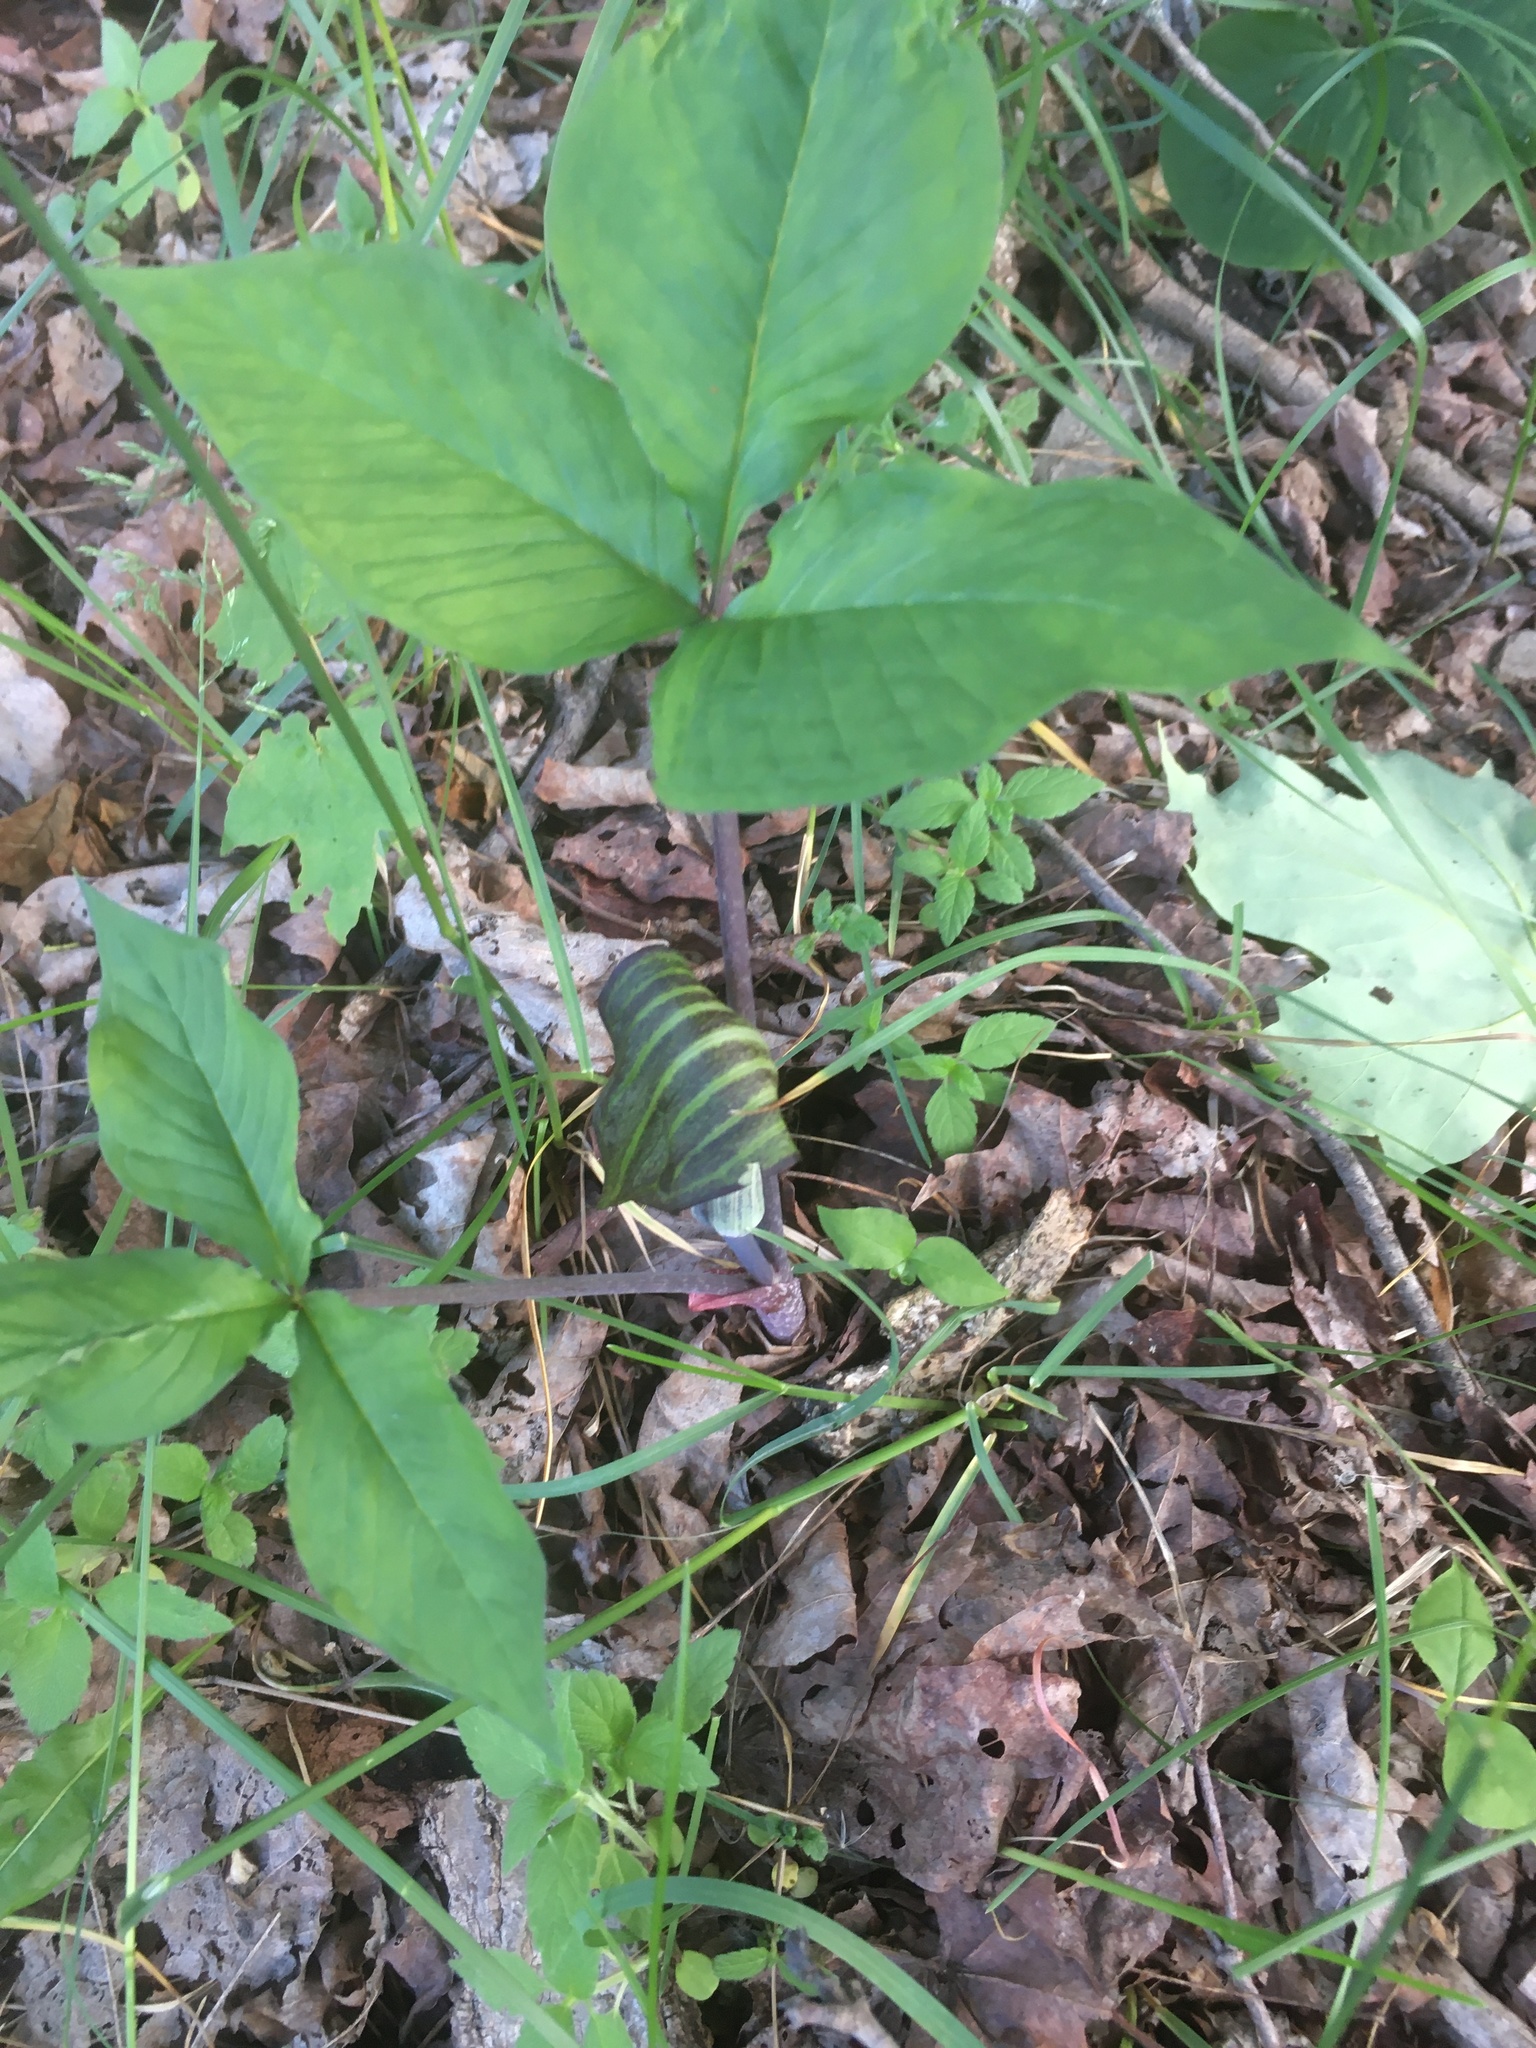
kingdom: Plantae
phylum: Tracheophyta
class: Liliopsida
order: Alismatales
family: Araceae
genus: Arisaema
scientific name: Arisaema triphyllum
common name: Jack-in-the-pulpit
